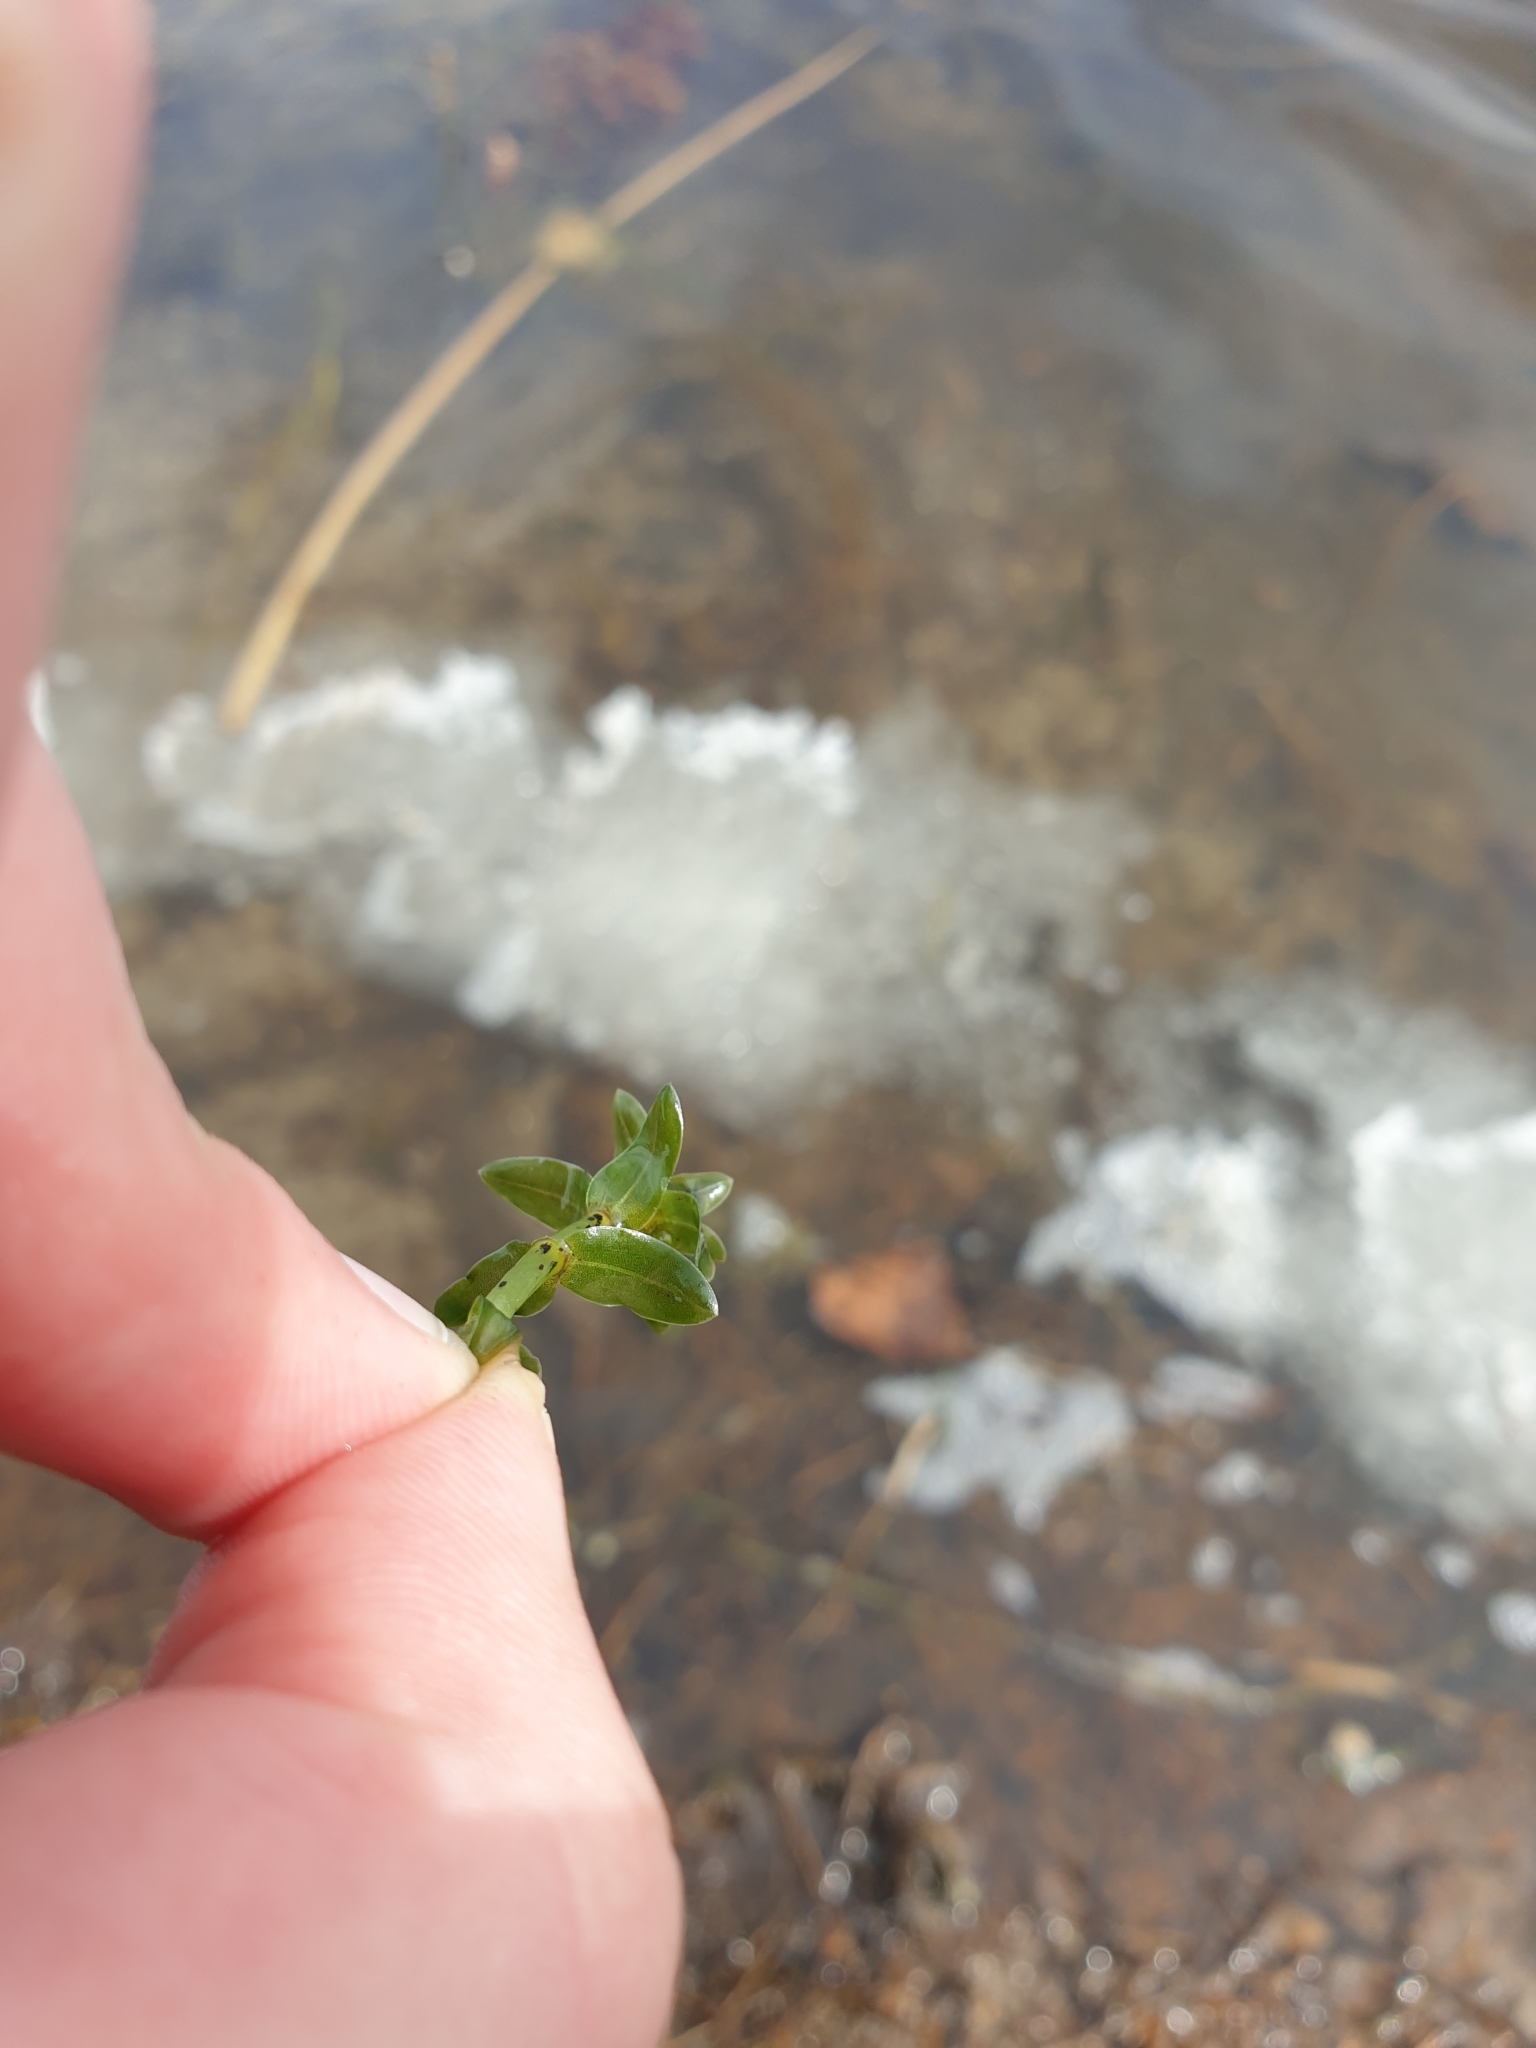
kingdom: Plantae
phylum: Tracheophyta
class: Liliopsida
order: Alismatales
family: Hydrocharitaceae
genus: Elodea
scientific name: Elodea canadensis
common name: Canadian waterweed
